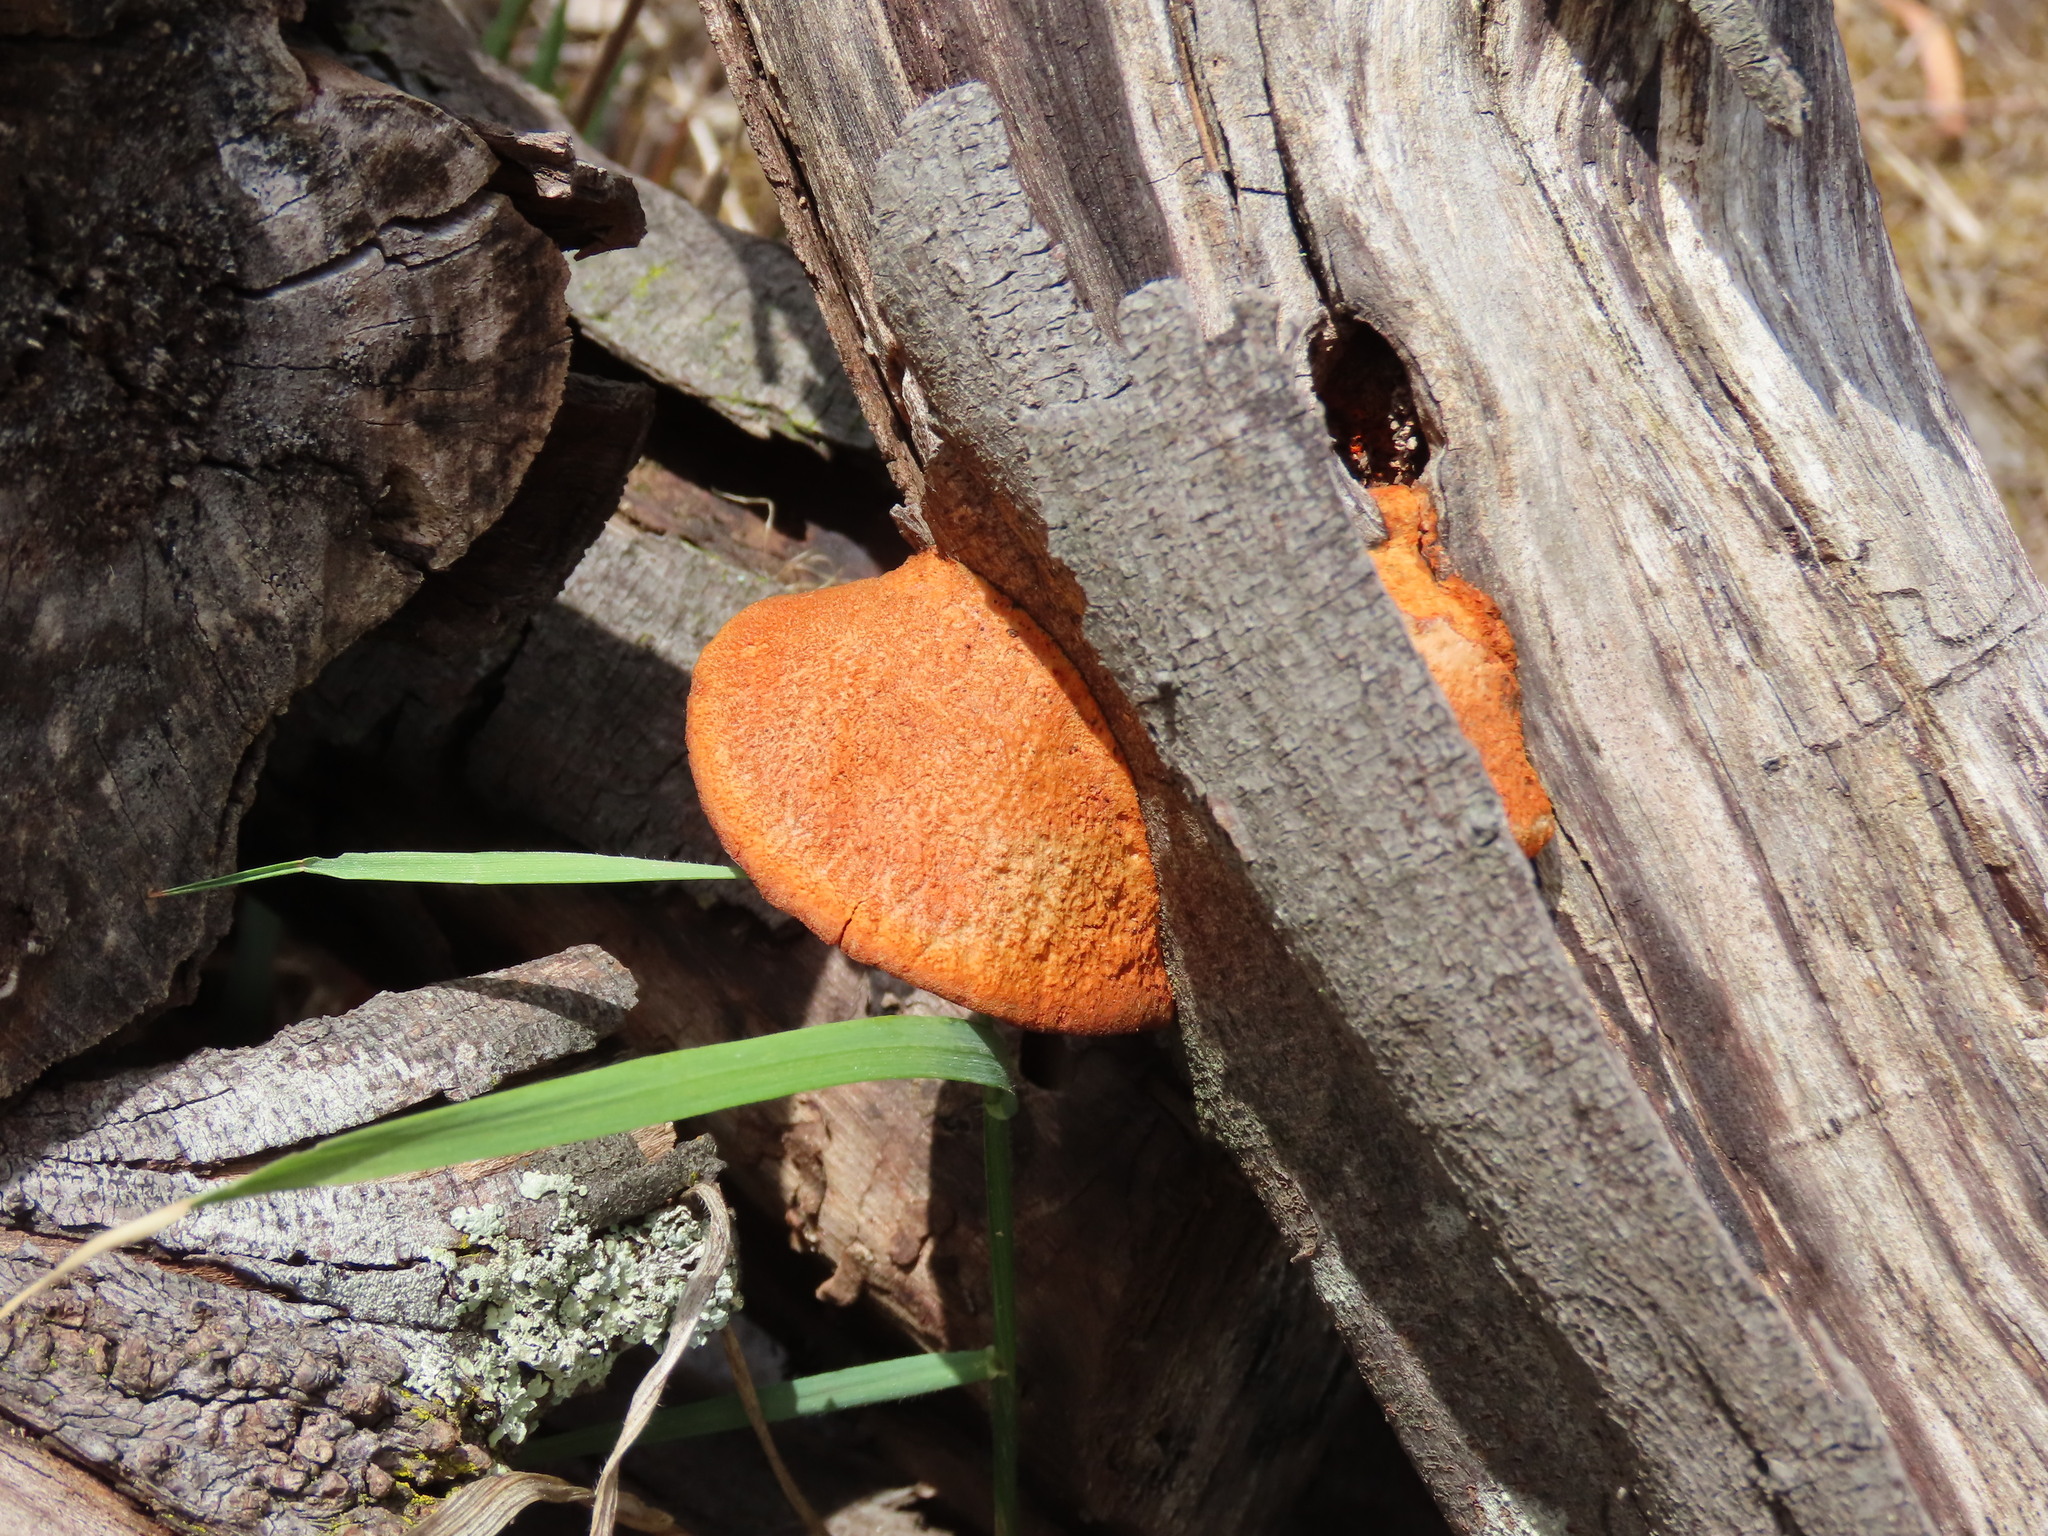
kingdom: Fungi
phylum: Basidiomycota
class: Agaricomycetes
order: Polyporales
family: Polyporaceae
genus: Trametes
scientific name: Trametes coccinea
